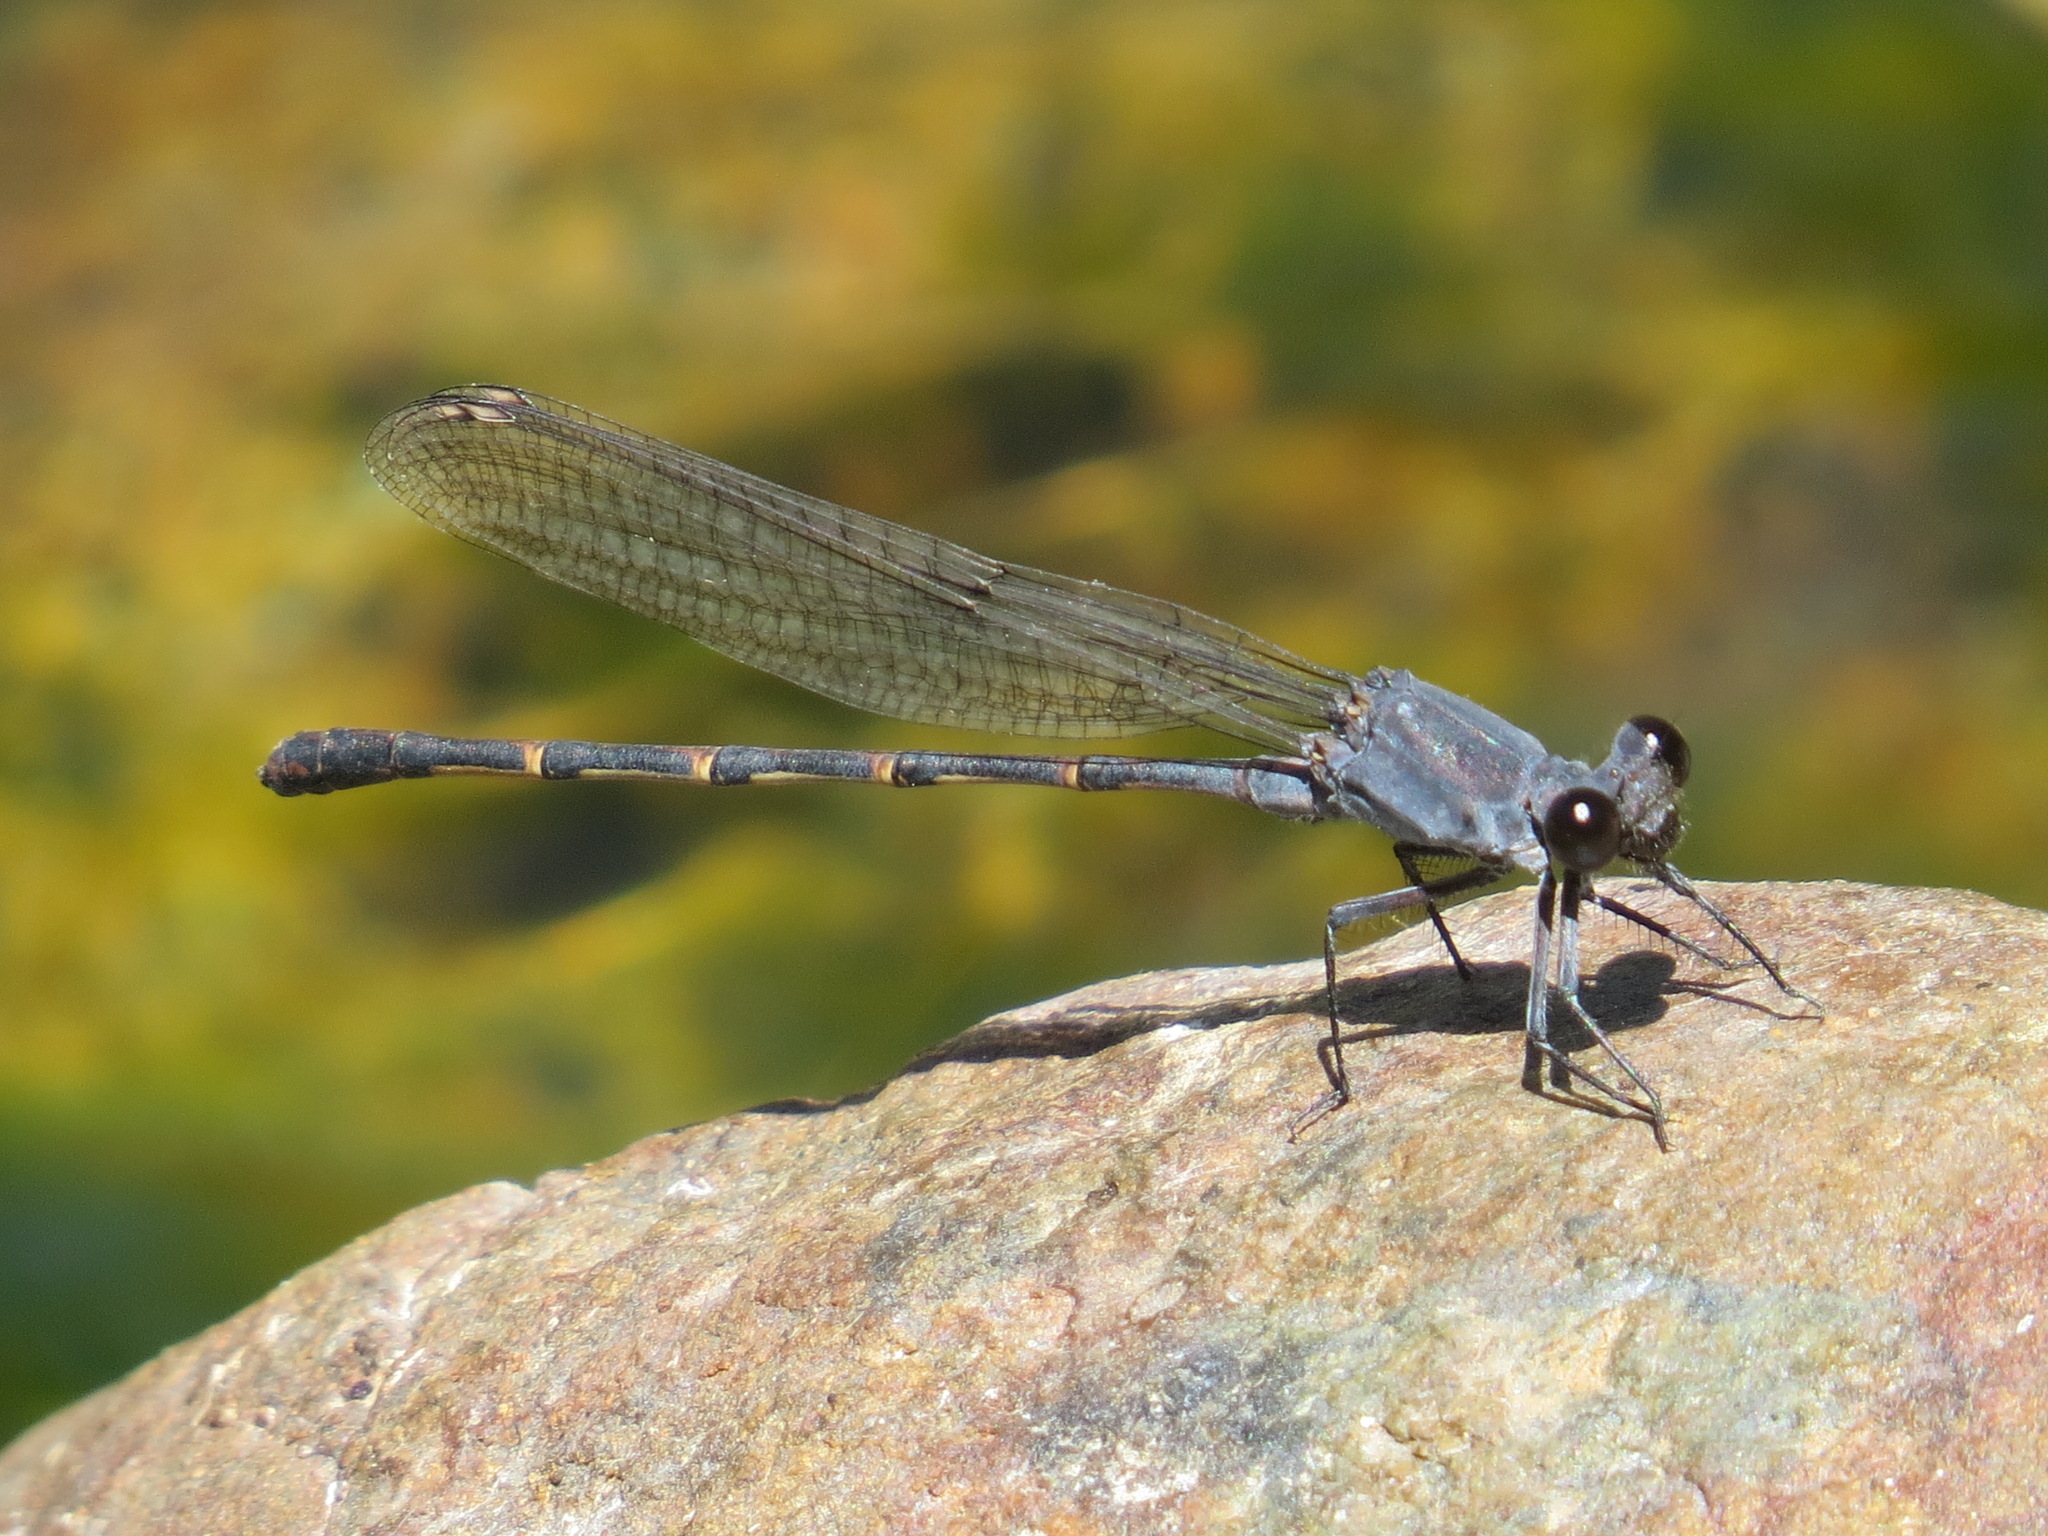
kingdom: Animalia
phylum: Arthropoda
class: Insecta
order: Odonata
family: Coenagrionidae
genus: Argia
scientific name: Argia lugens
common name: Sooty dancer
